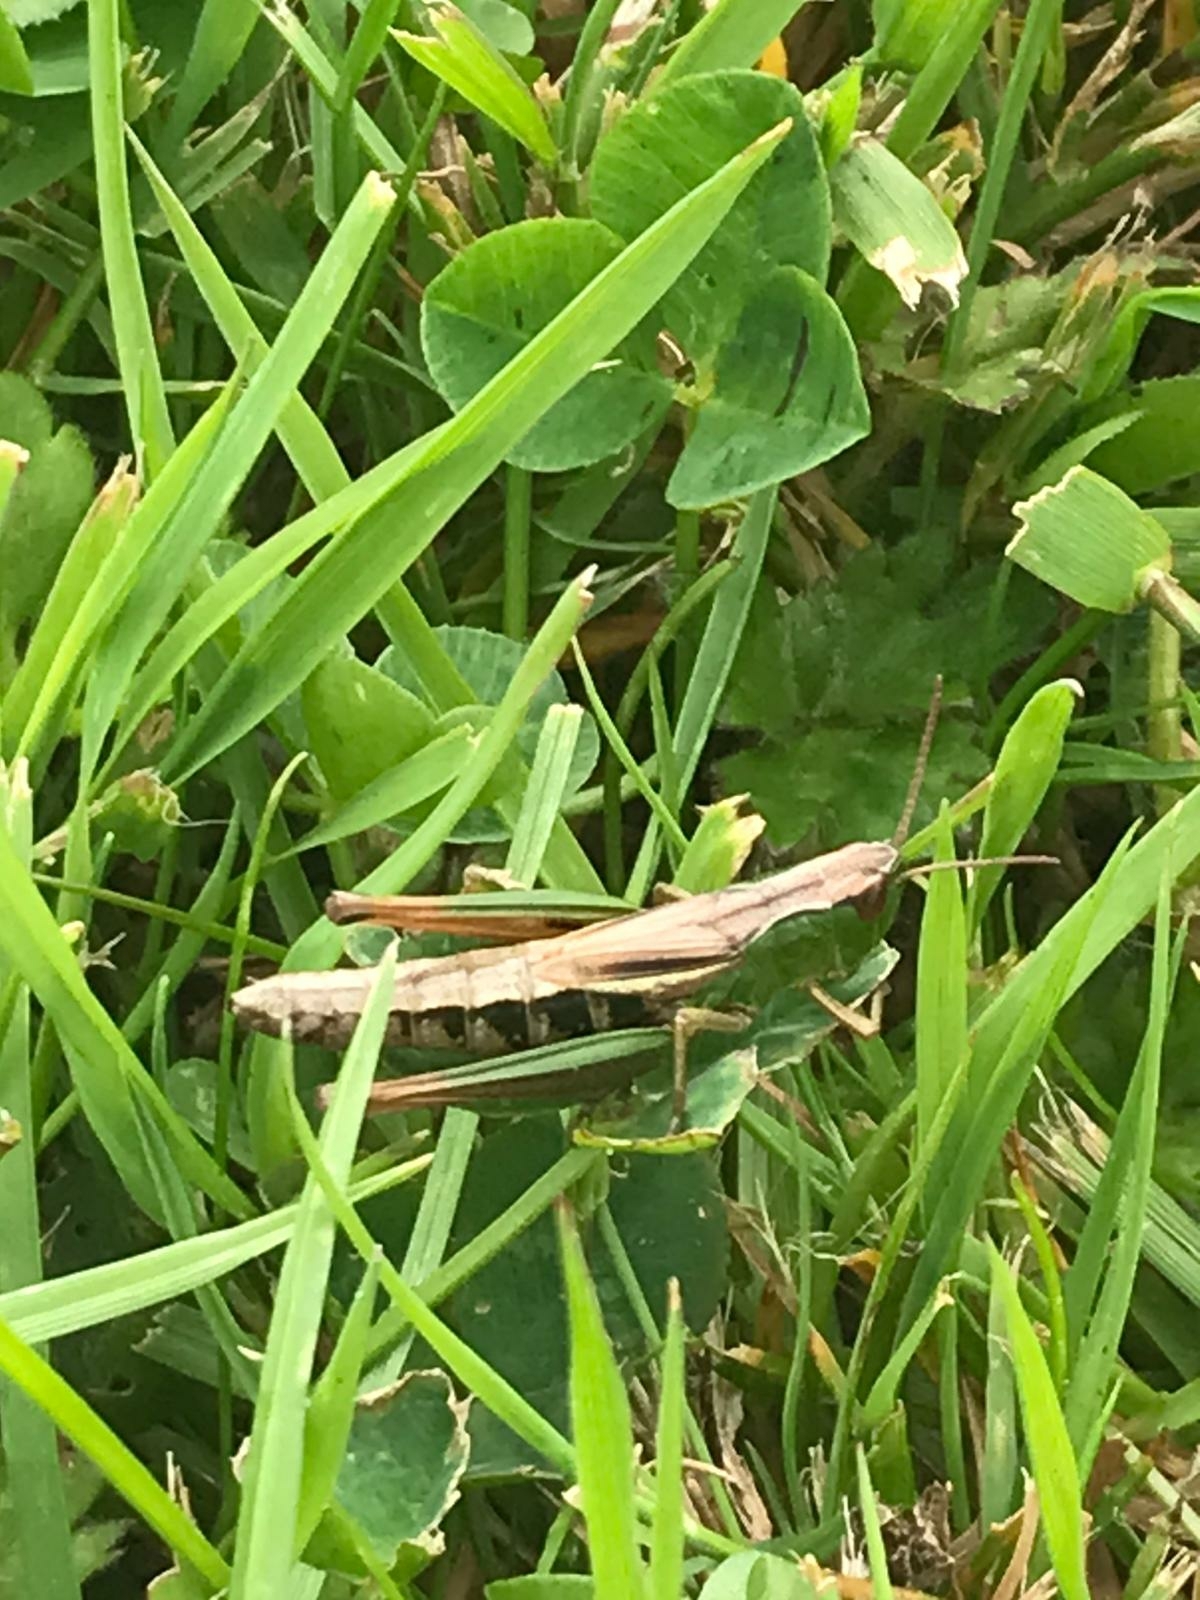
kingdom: Animalia
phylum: Arthropoda
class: Insecta
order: Orthoptera
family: Acrididae
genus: Pseudochorthippus
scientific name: Pseudochorthippus parallelus
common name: Meadow grasshopper
